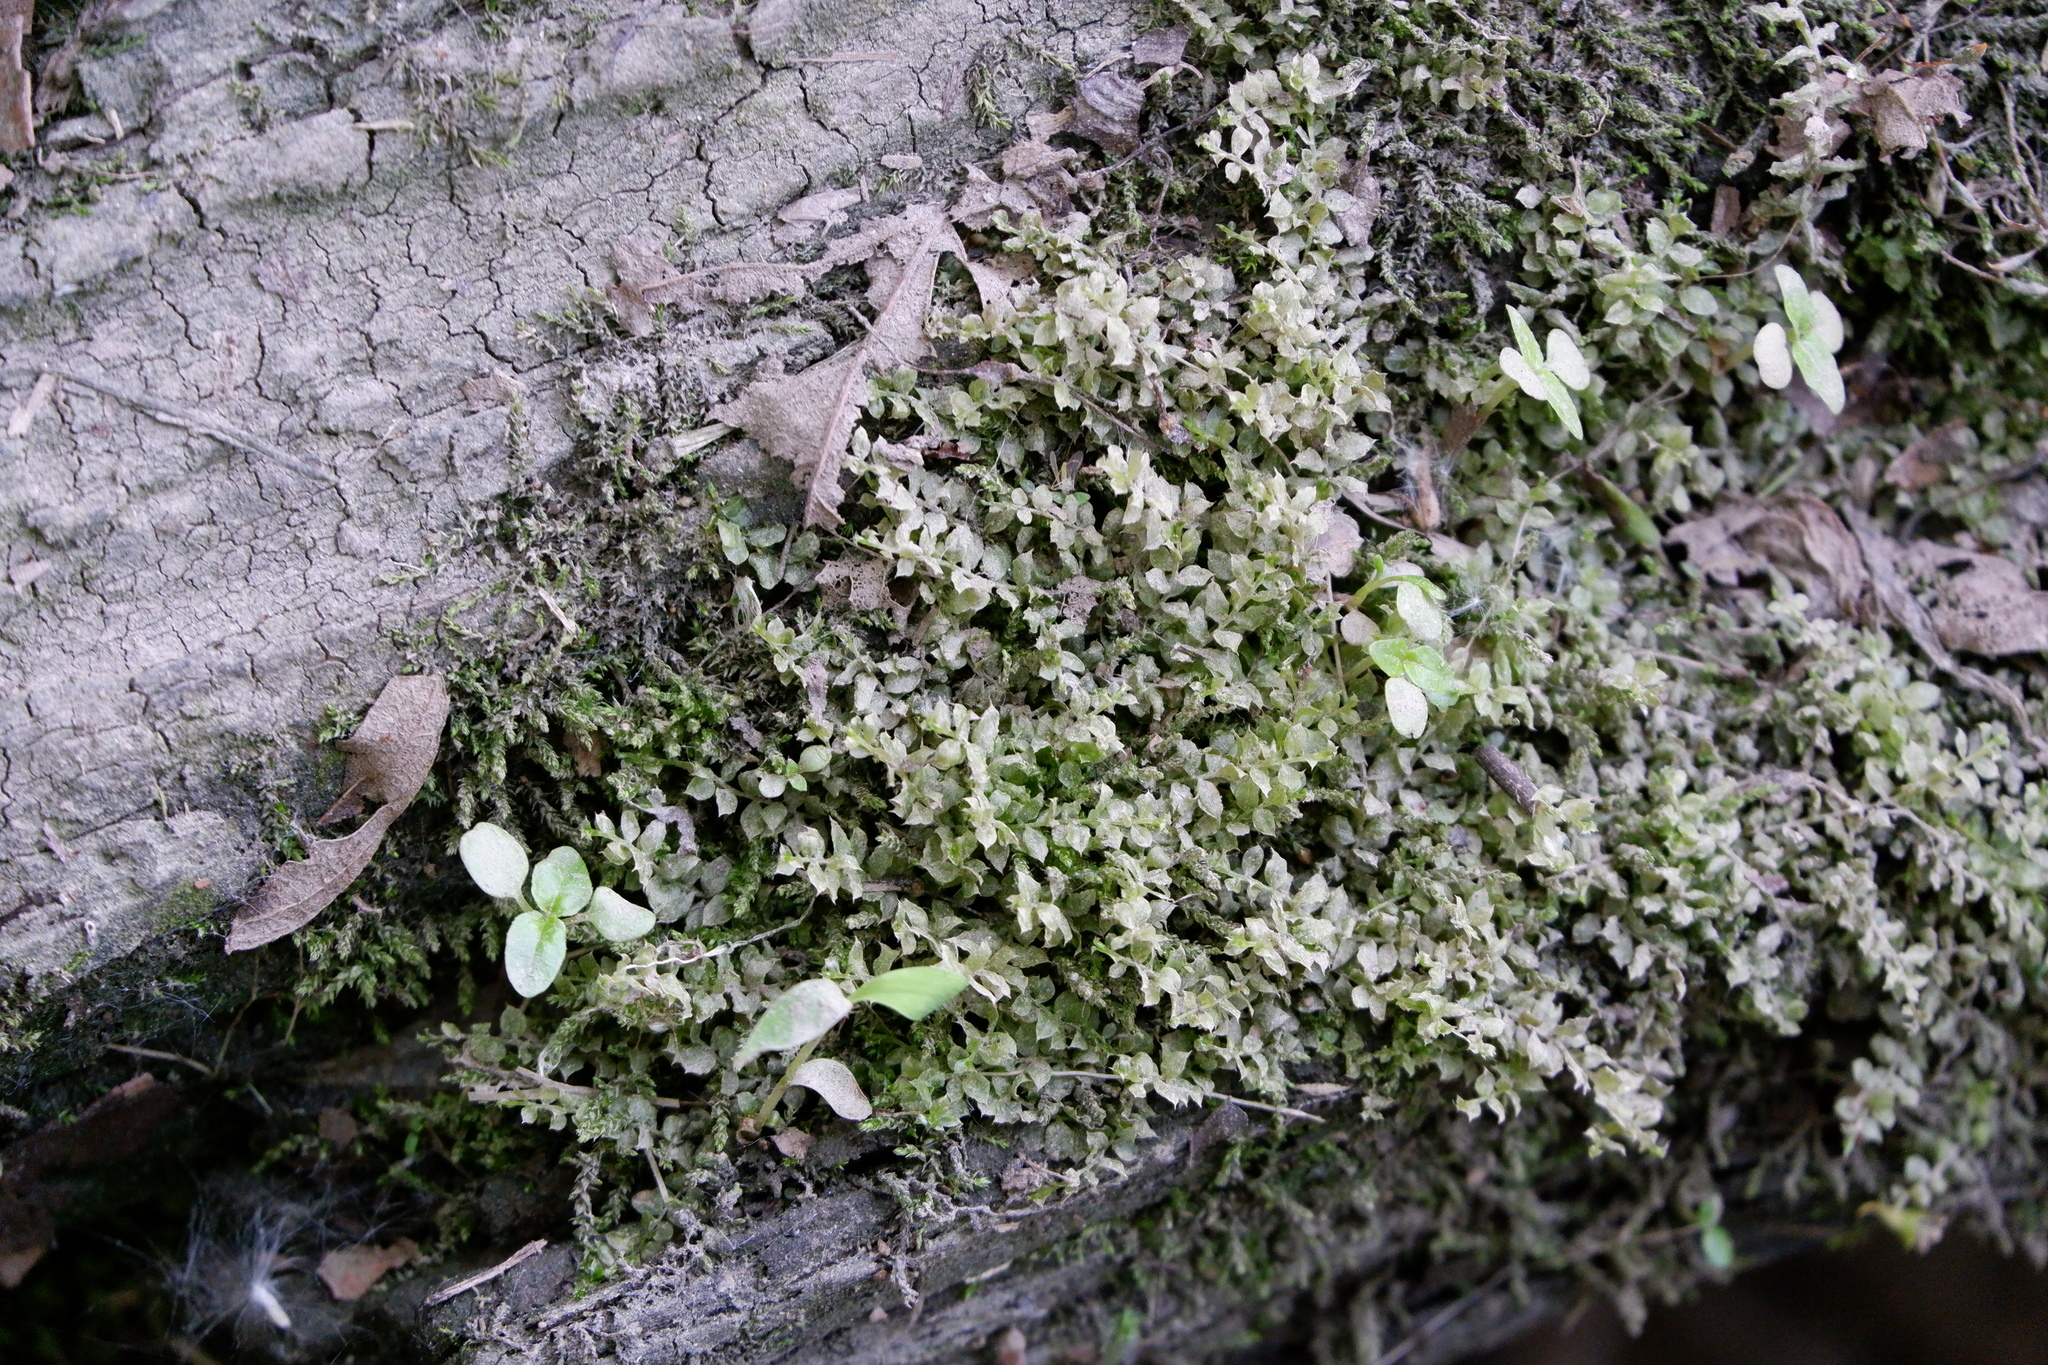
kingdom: Plantae
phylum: Bryophyta
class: Bryopsida
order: Bryales
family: Mniaceae
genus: Plagiomnium
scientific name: Plagiomnium cuspidatum
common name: Woodsy leafy moss
